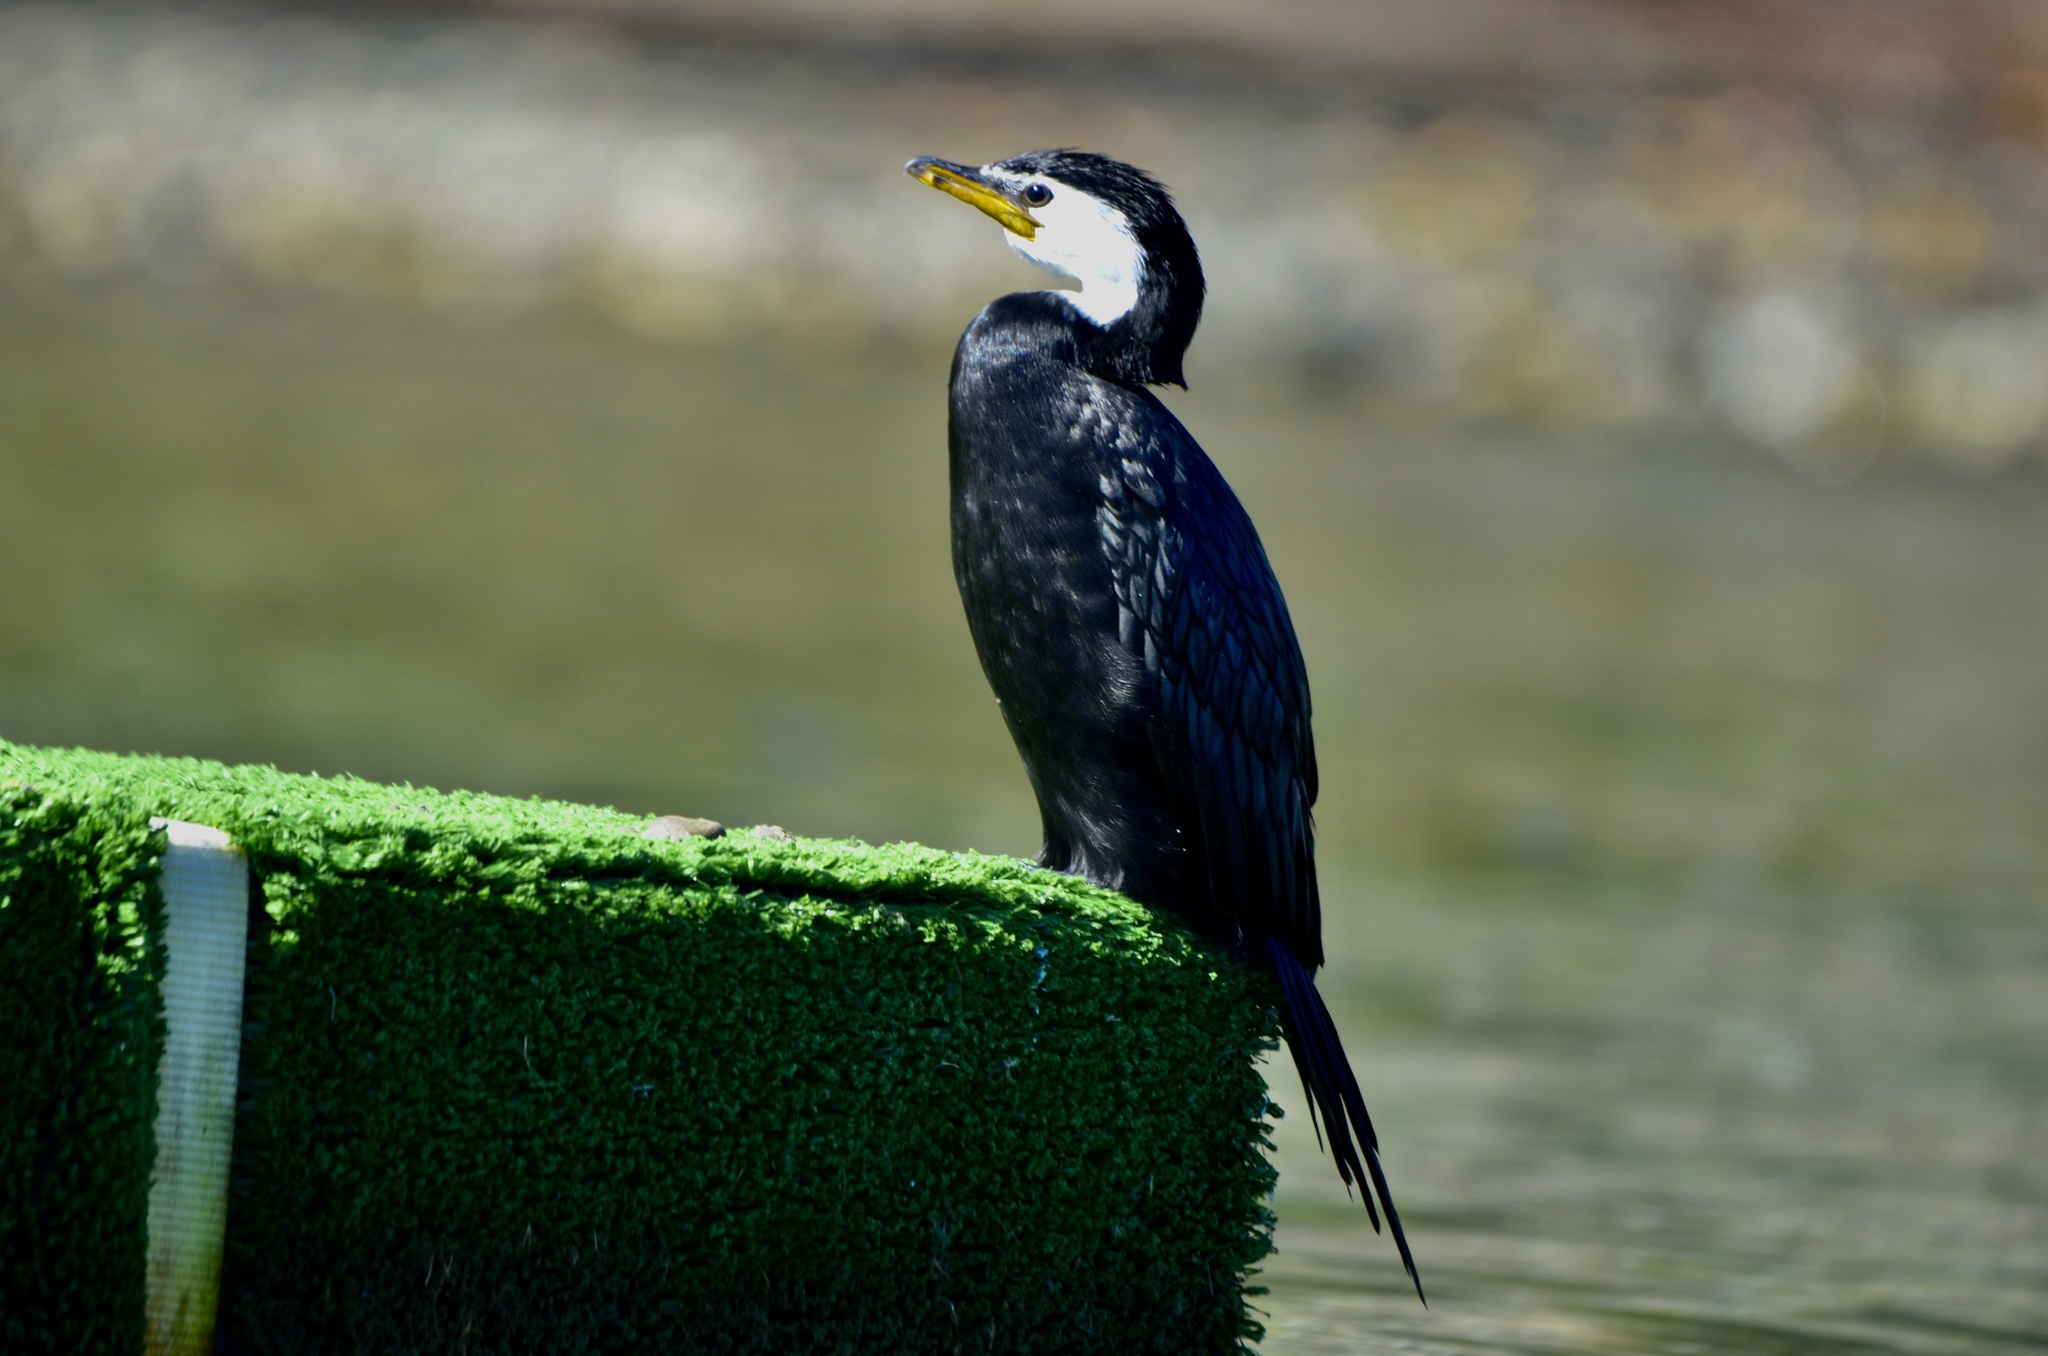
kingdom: Animalia
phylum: Chordata
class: Aves
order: Suliformes
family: Phalacrocoracidae
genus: Microcarbo
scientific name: Microcarbo melanoleucos
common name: Little pied cormorant
